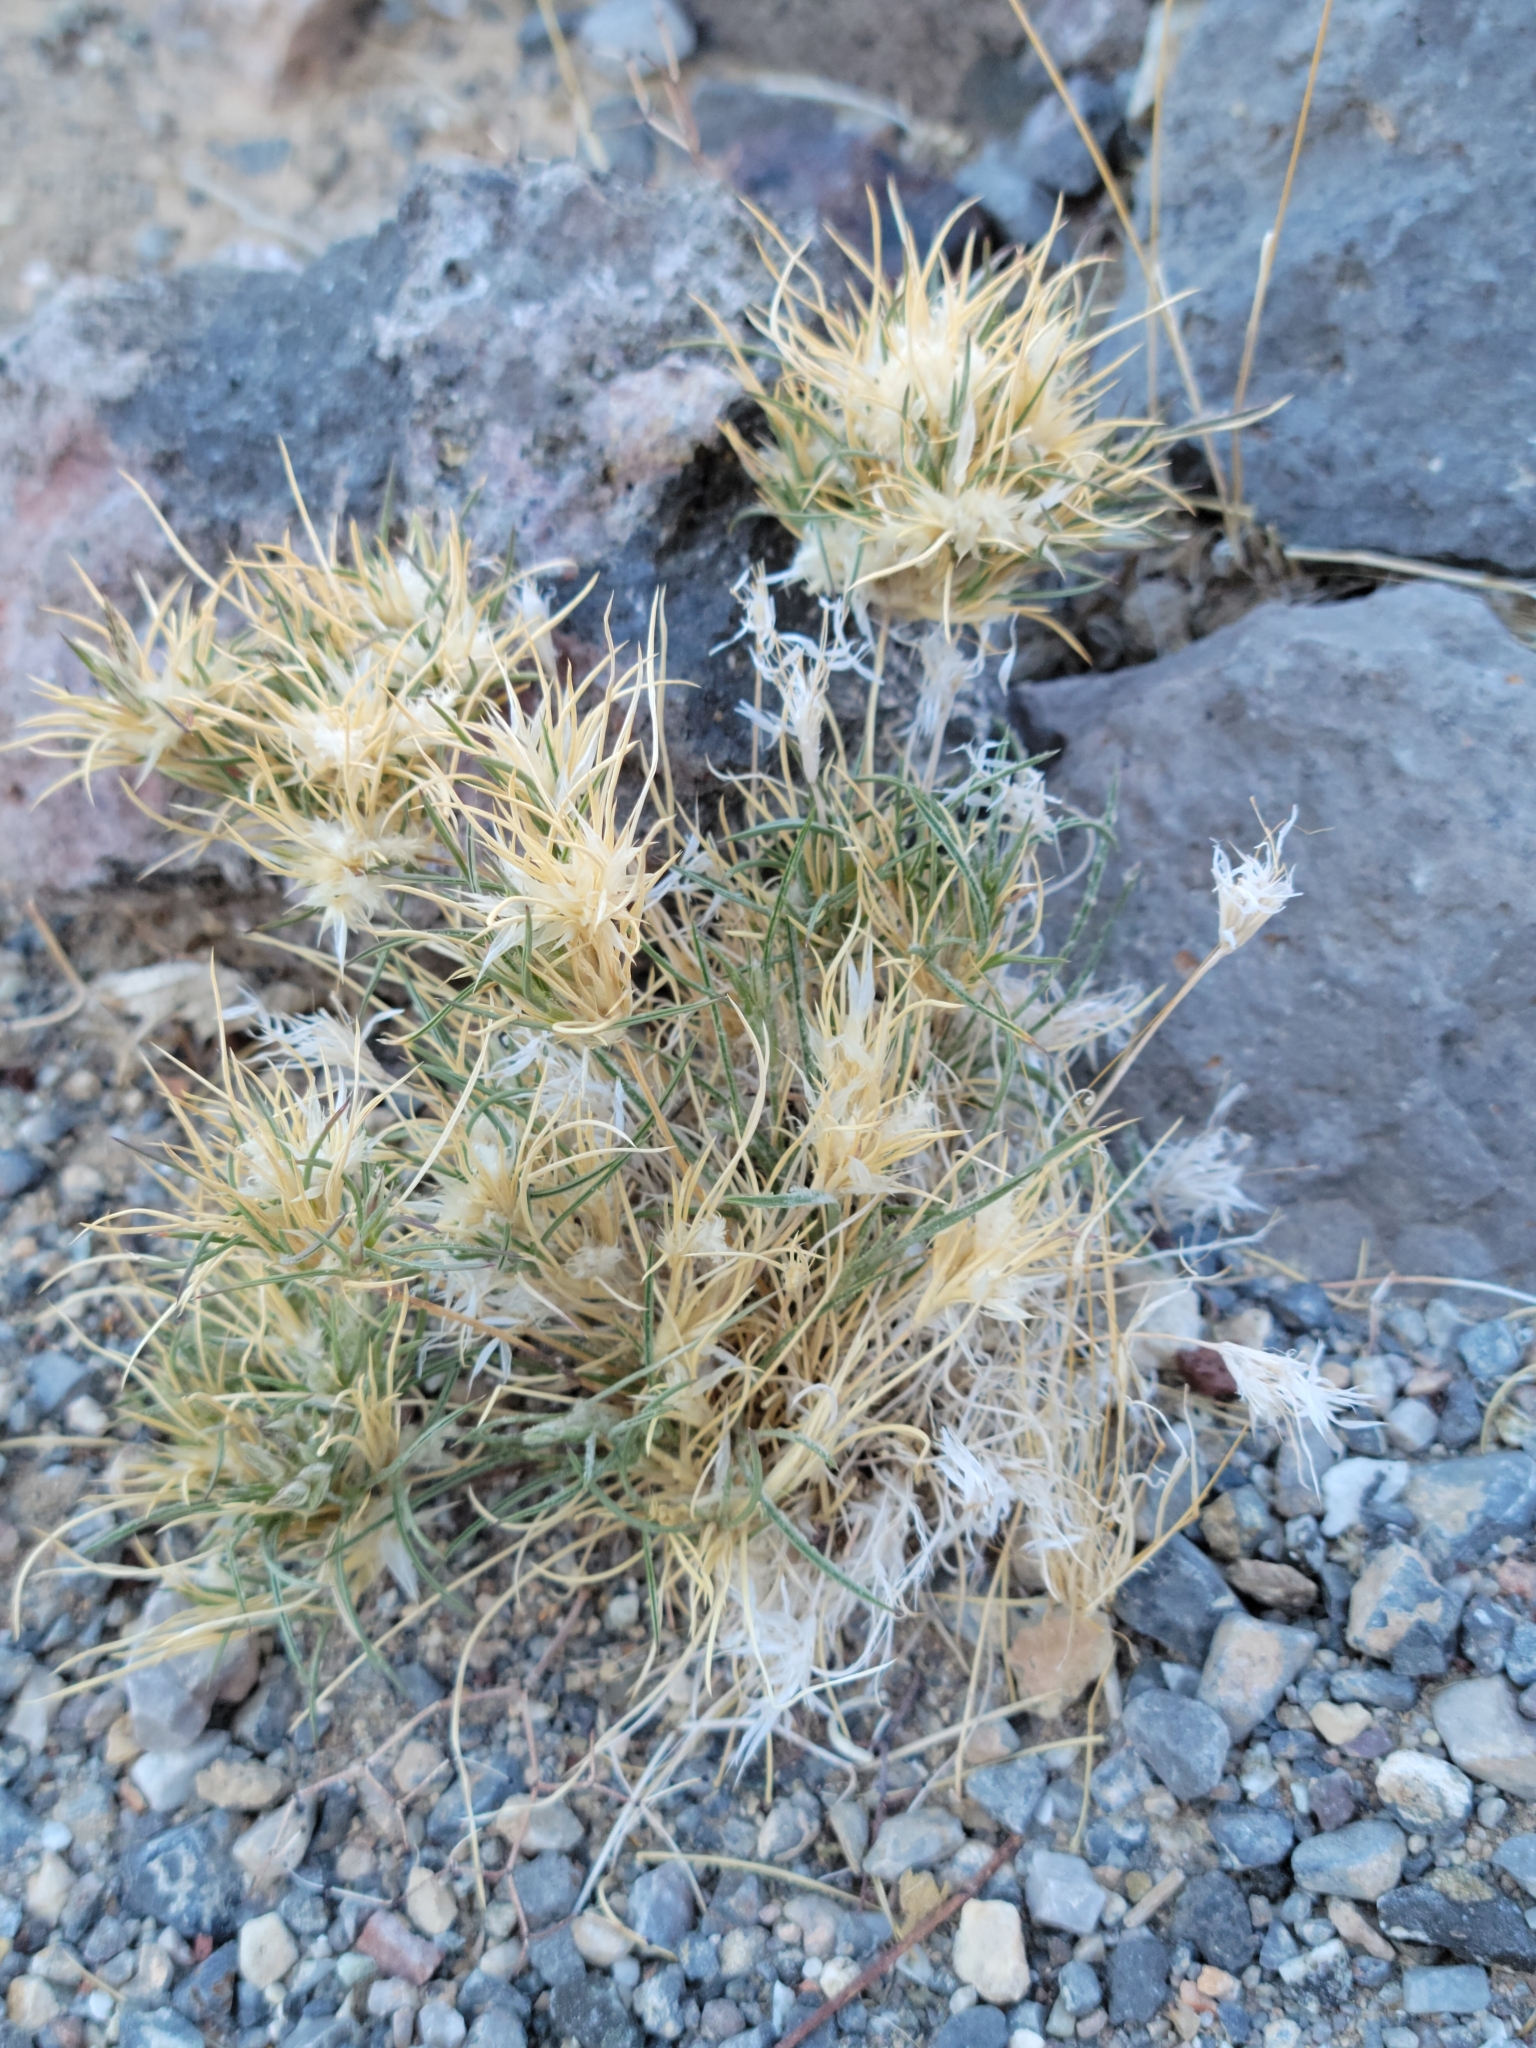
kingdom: Plantae
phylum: Tracheophyta
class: Liliopsida
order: Poales
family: Poaceae
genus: Dasyochloa
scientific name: Dasyochloa pulchella
